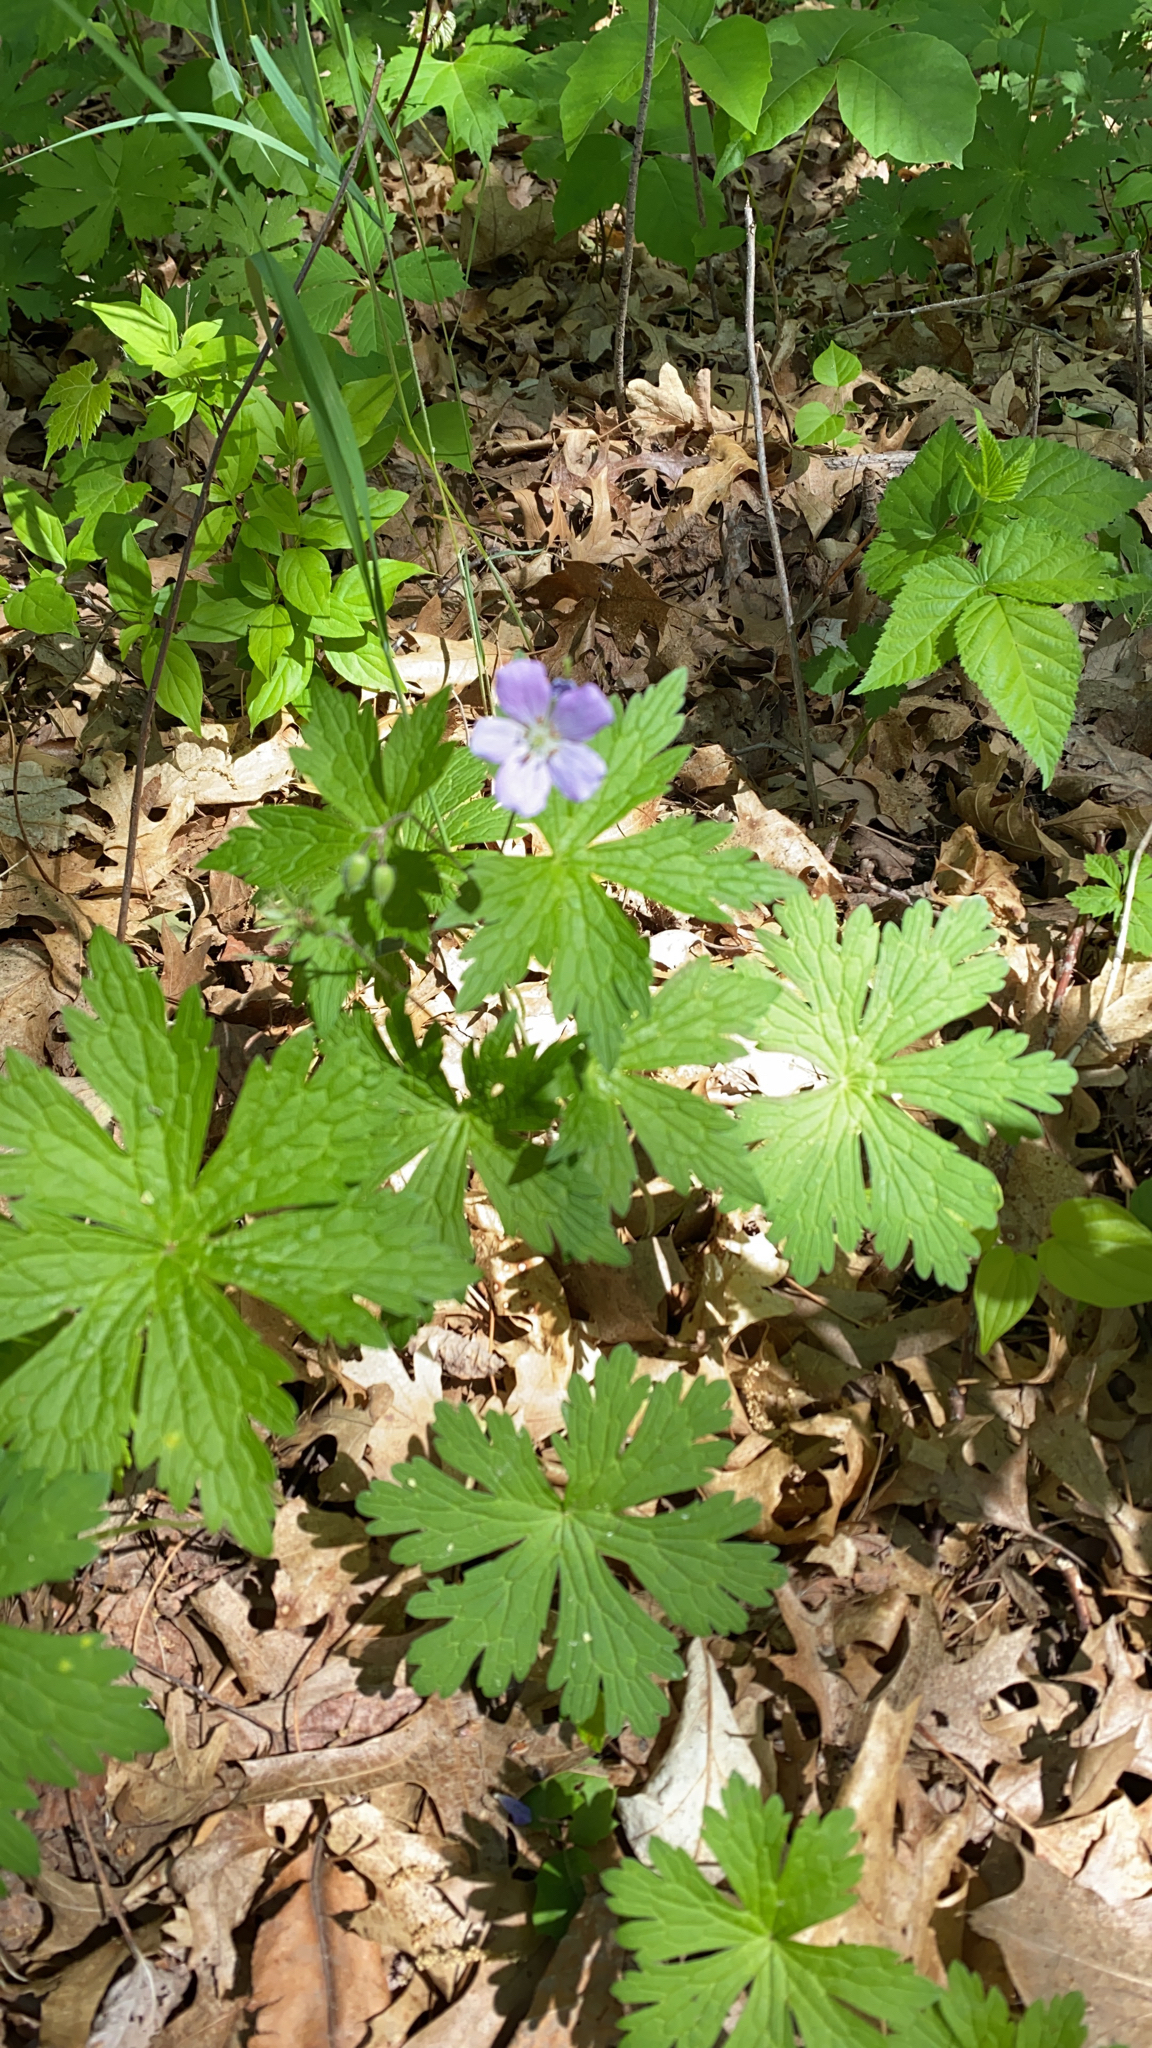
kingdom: Plantae
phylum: Tracheophyta
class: Magnoliopsida
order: Geraniales
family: Geraniaceae
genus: Geranium
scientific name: Geranium maculatum
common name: Spotted geranium
